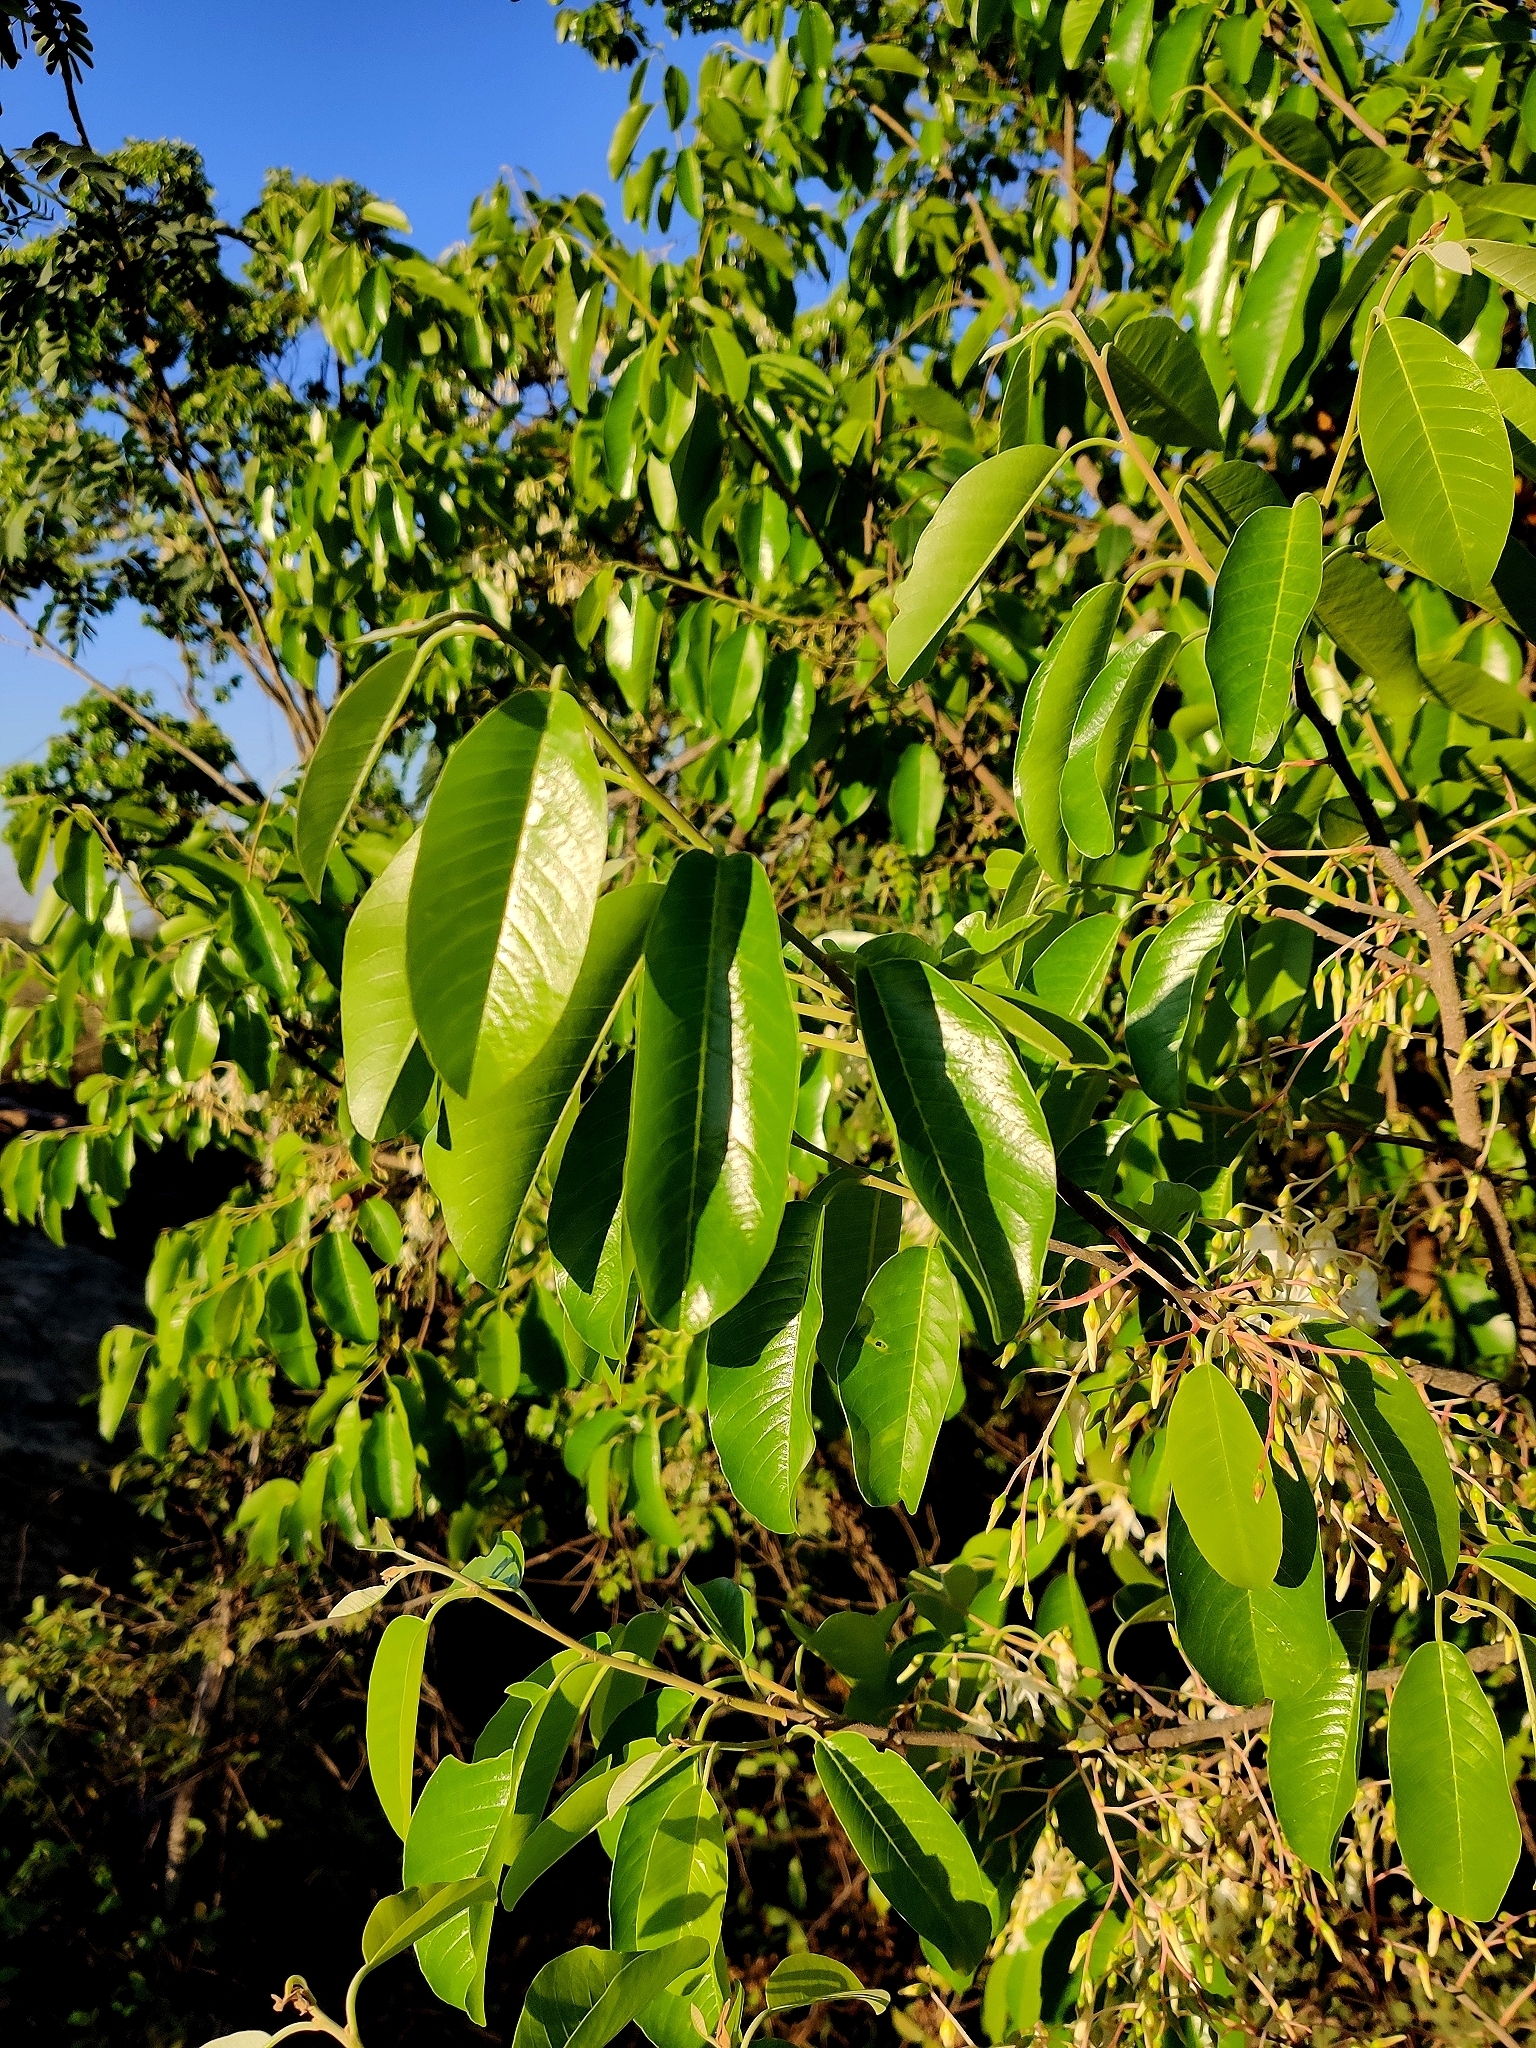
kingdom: Plantae
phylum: Tracheophyta
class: Magnoliopsida
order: Malvales
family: Dipterocarpaceae
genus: Anthoshorea
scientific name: Anthoshorea roxburghii
